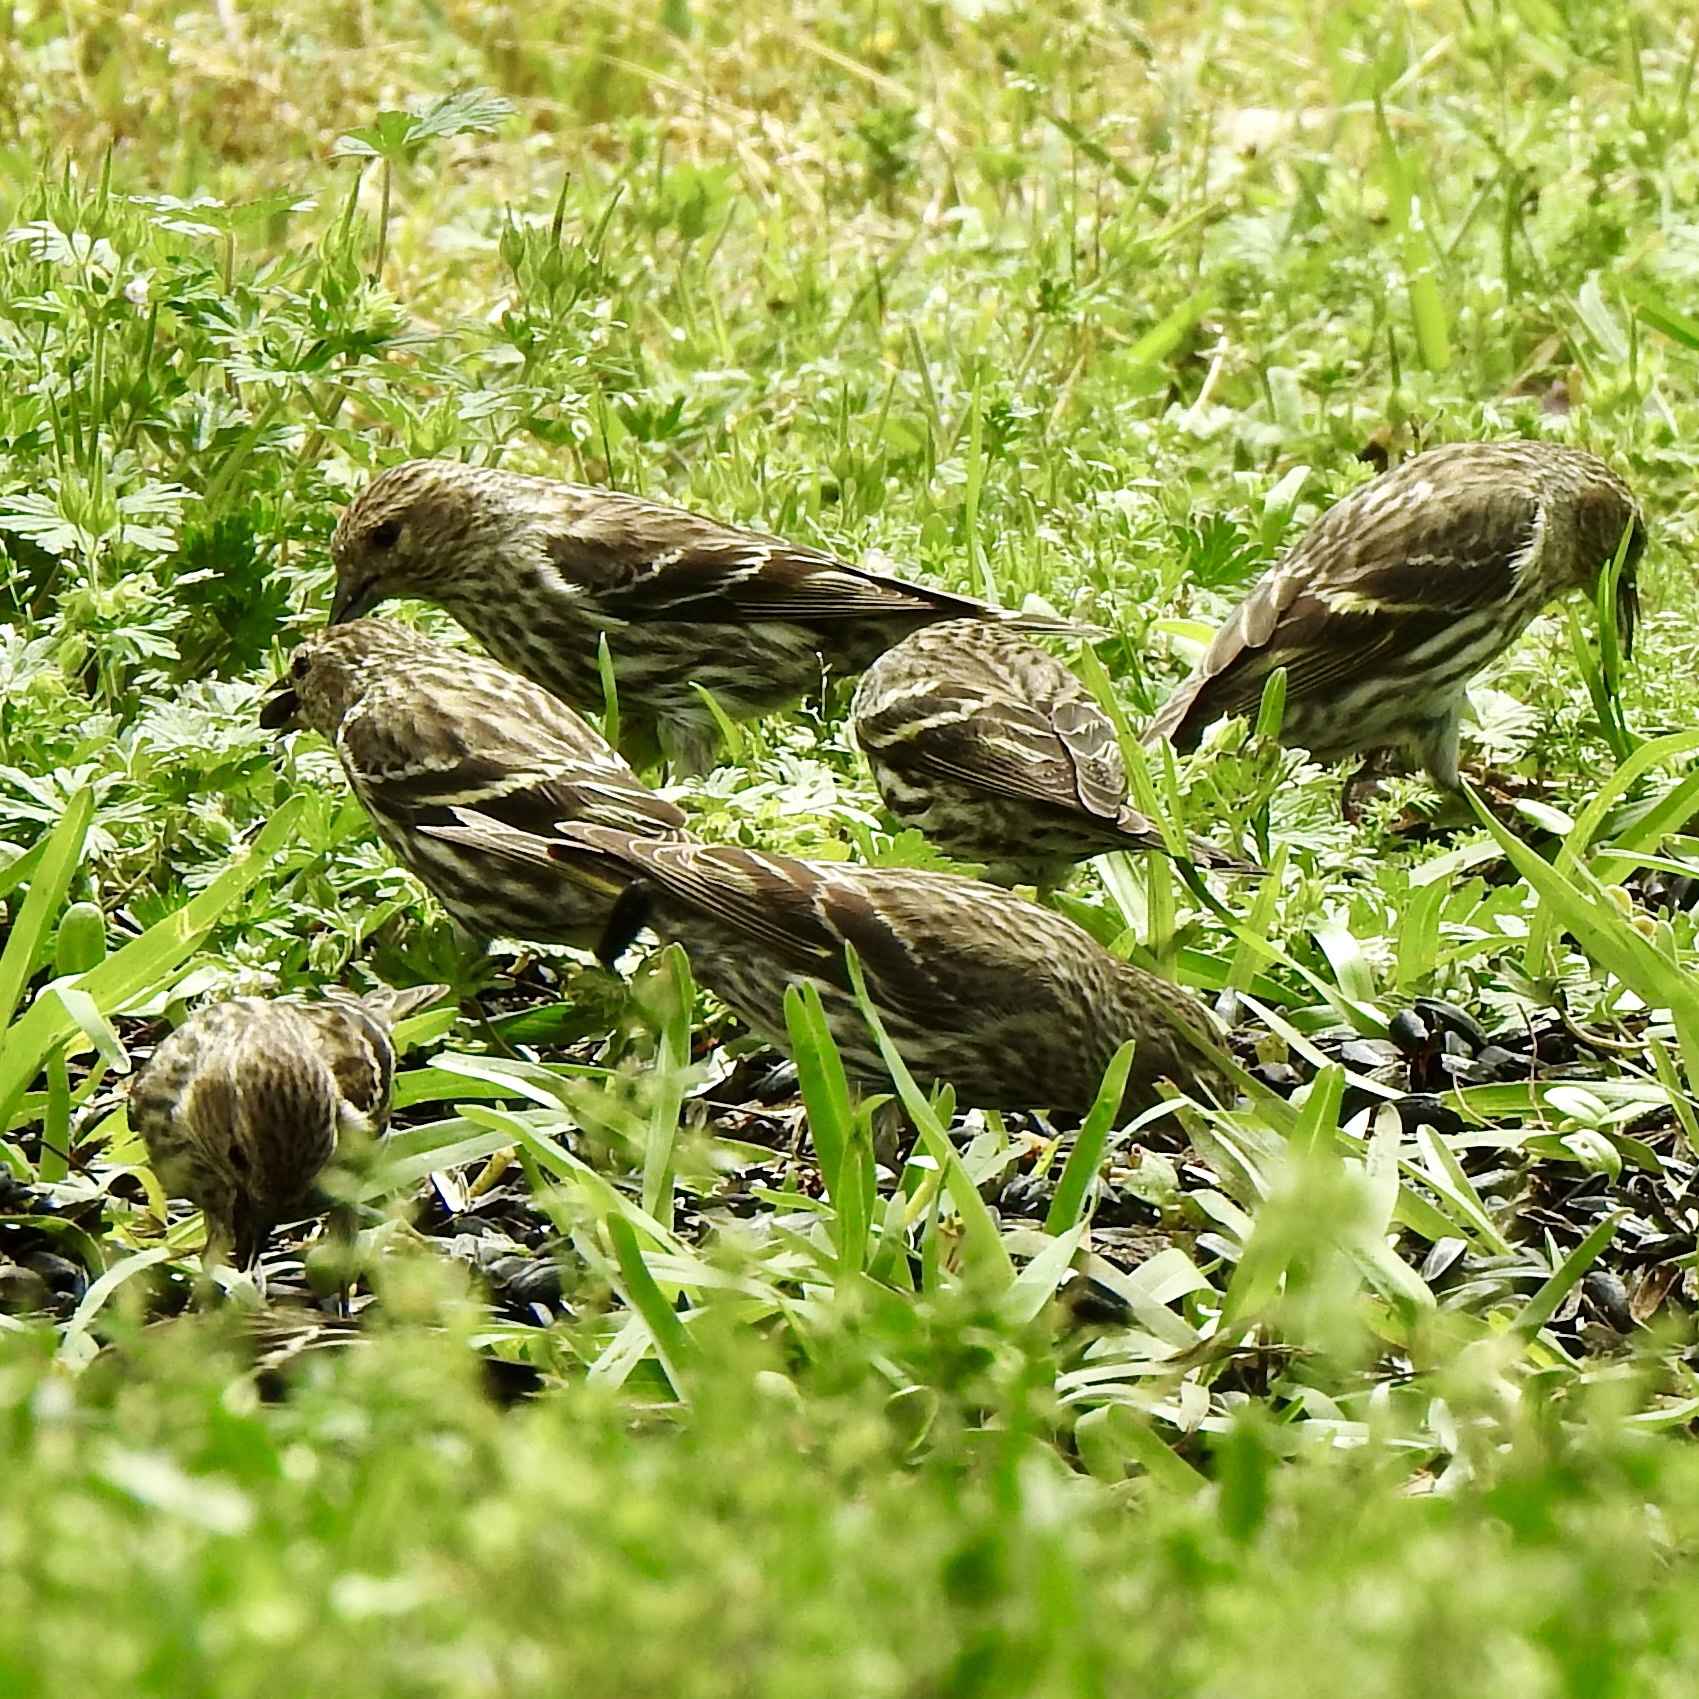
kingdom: Animalia
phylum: Chordata
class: Aves
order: Passeriformes
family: Fringillidae
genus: Spinus
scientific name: Spinus pinus
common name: Pine siskin
